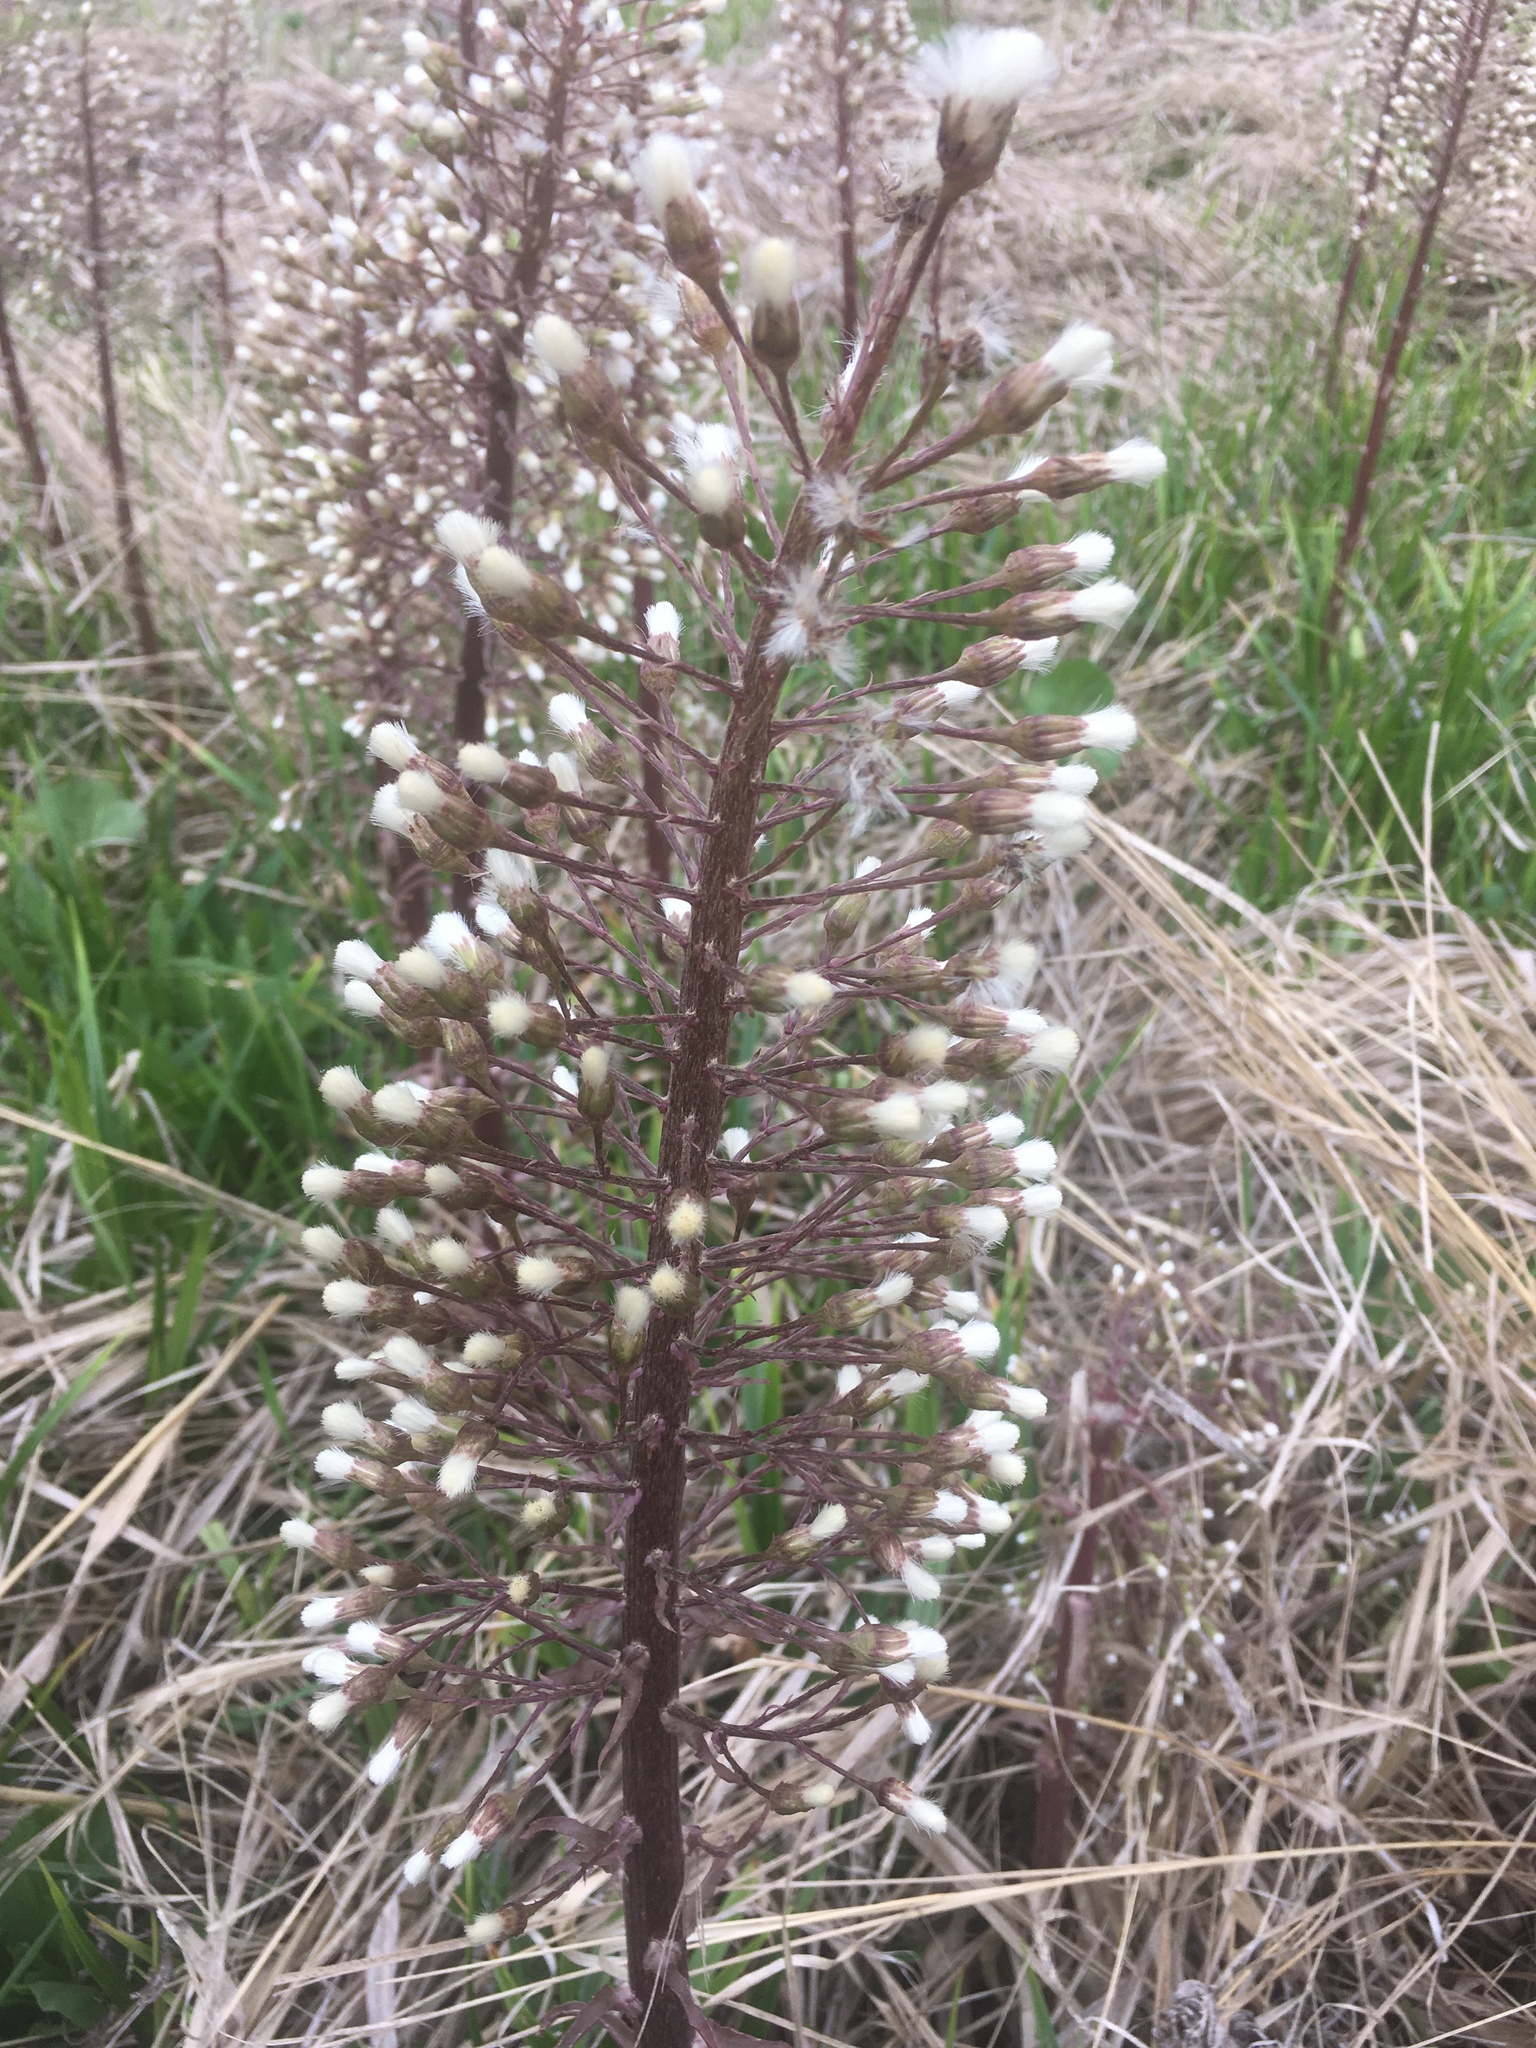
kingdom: Plantae
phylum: Tracheophyta
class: Magnoliopsida
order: Asterales
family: Asteraceae
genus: Petasites
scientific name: Petasites hybridus
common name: Butterbur
